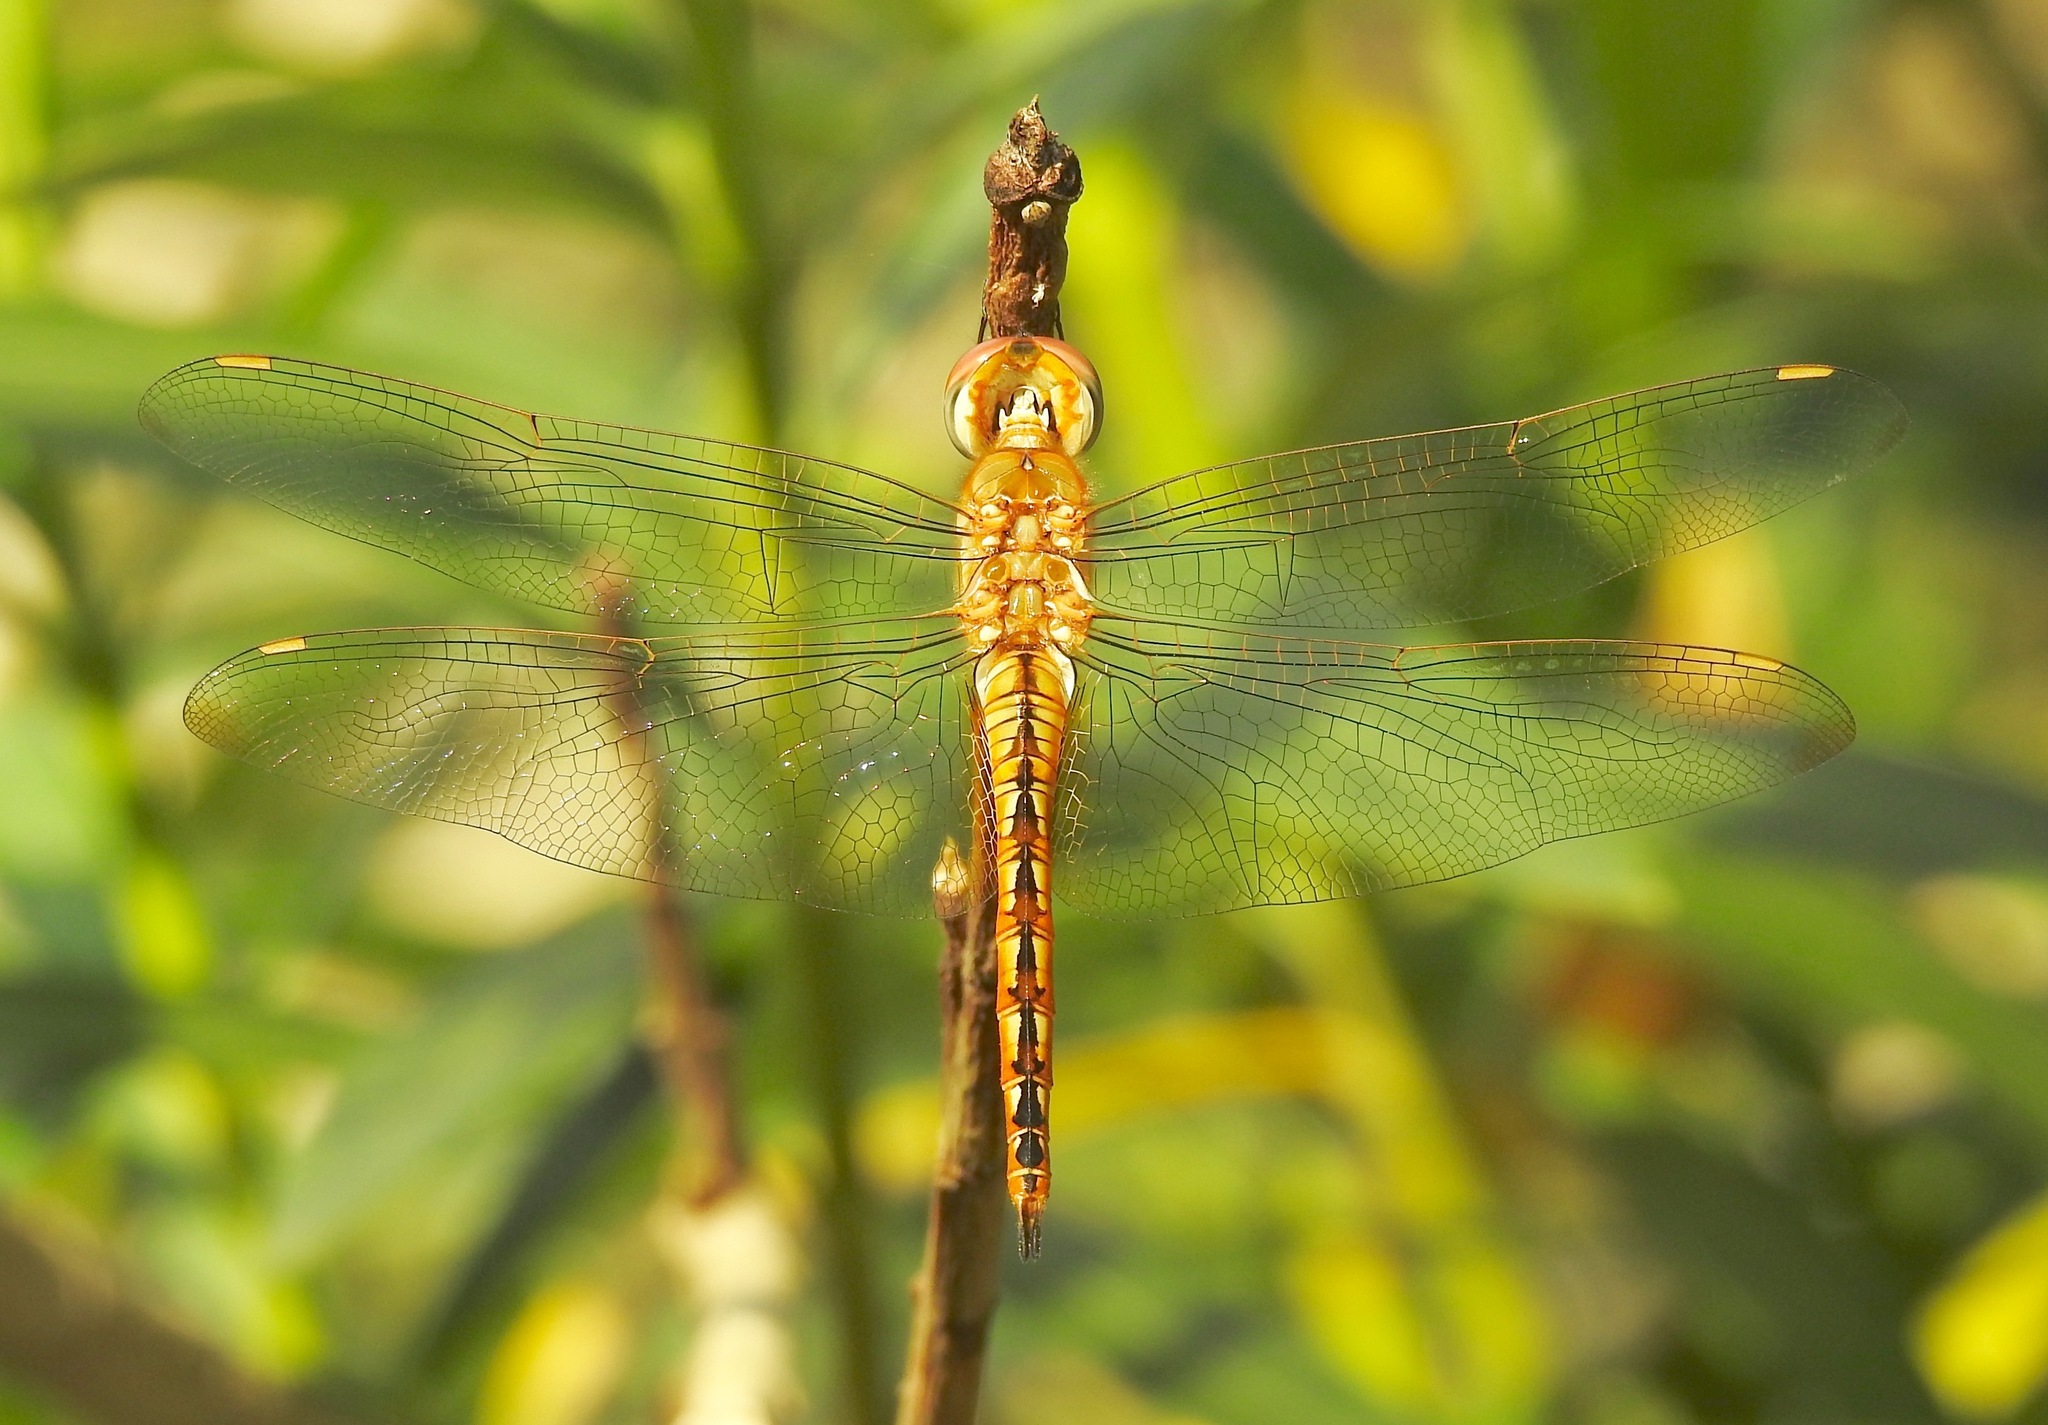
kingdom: Animalia
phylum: Arthropoda
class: Insecta
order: Odonata
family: Libellulidae
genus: Pantala
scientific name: Pantala flavescens
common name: Wandering glider
